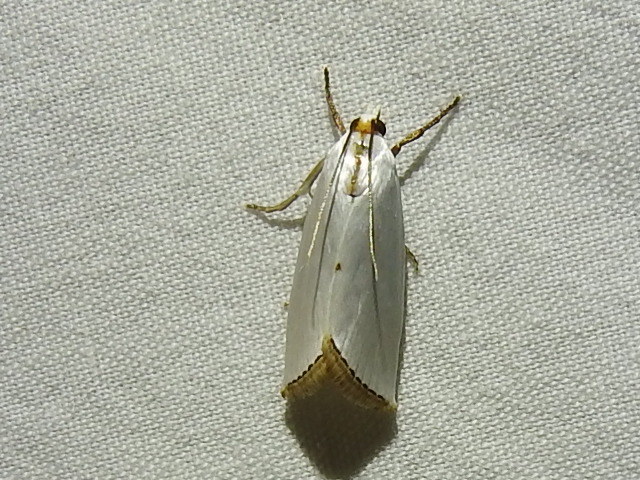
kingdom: Animalia
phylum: Arthropoda
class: Insecta
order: Lepidoptera
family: Crambidae
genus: Argyria
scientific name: Argyria nivalis
